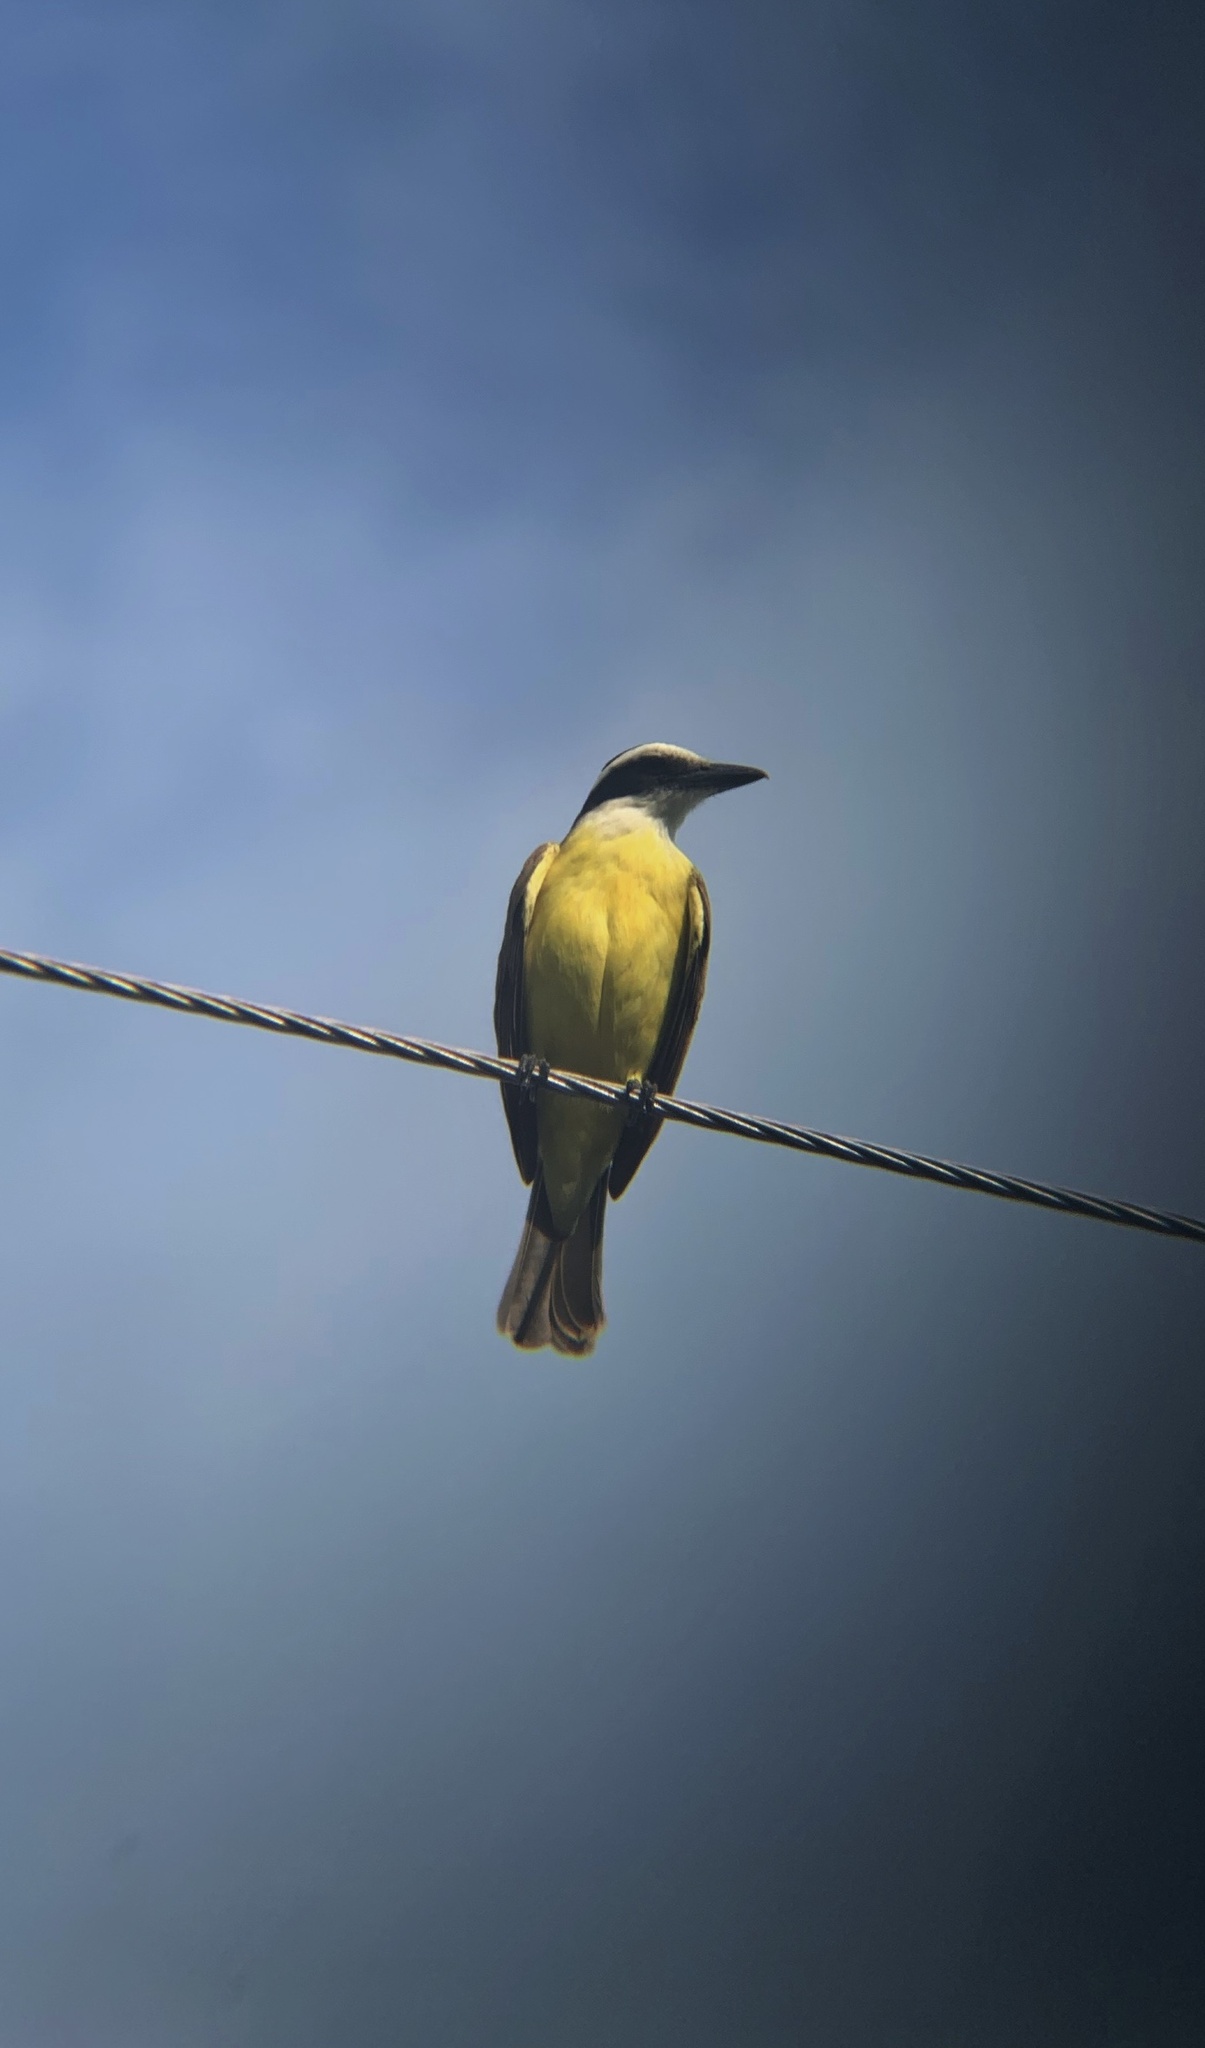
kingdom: Animalia
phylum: Chordata
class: Aves
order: Passeriformes
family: Tyrannidae
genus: Pitangus
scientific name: Pitangus sulphuratus
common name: Great kiskadee
